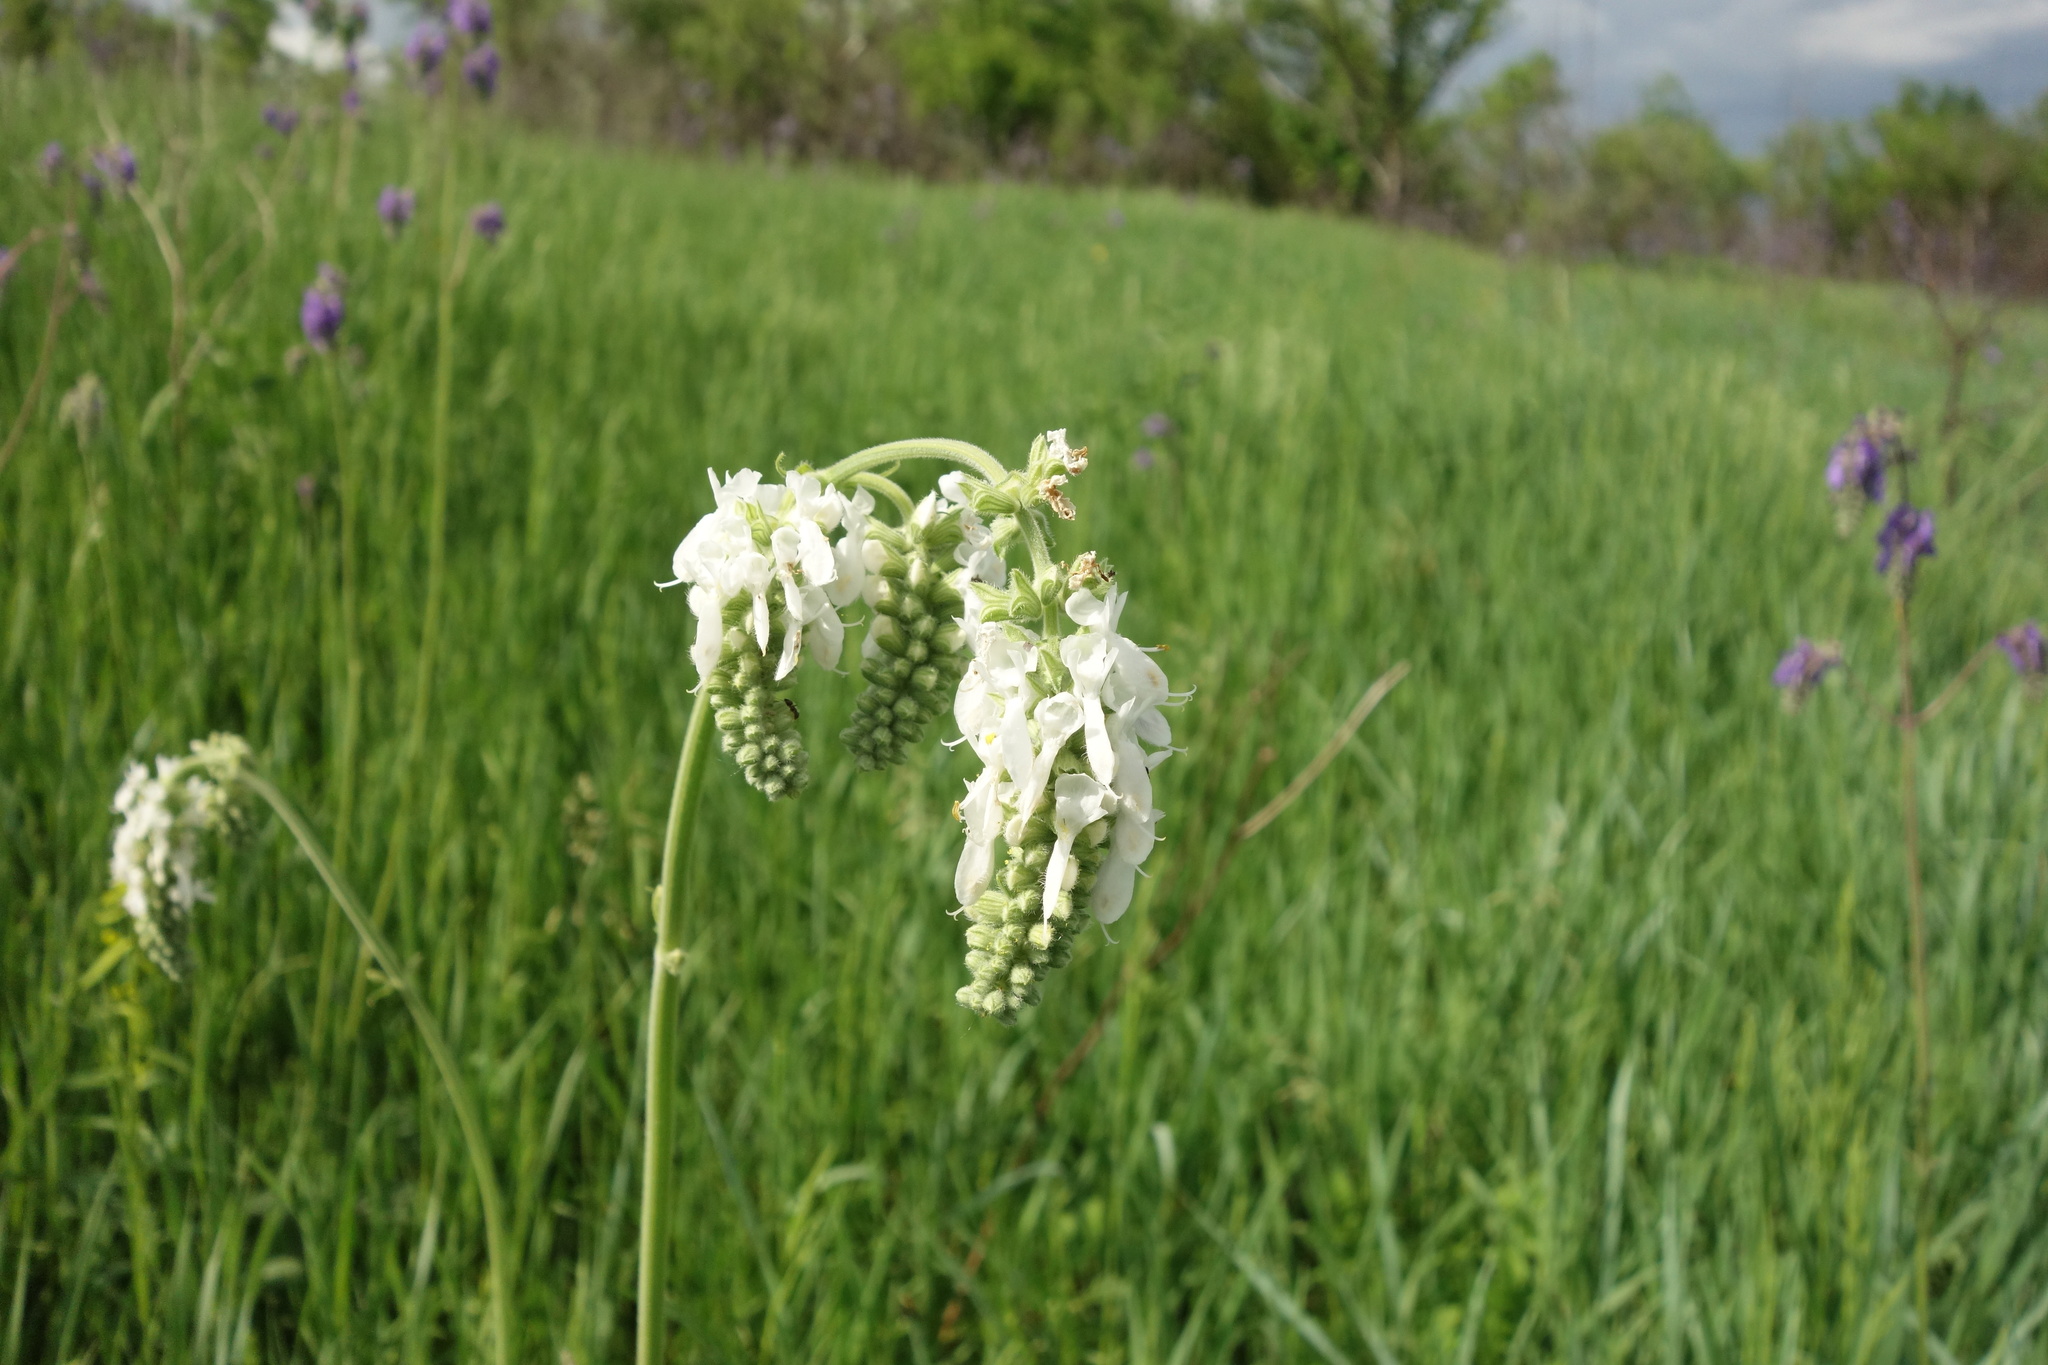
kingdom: Plantae
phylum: Tracheophyta
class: Magnoliopsida
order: Lamiales
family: Lamiaceae
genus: Salvia
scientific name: Salvia nutans
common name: Nodding sage
